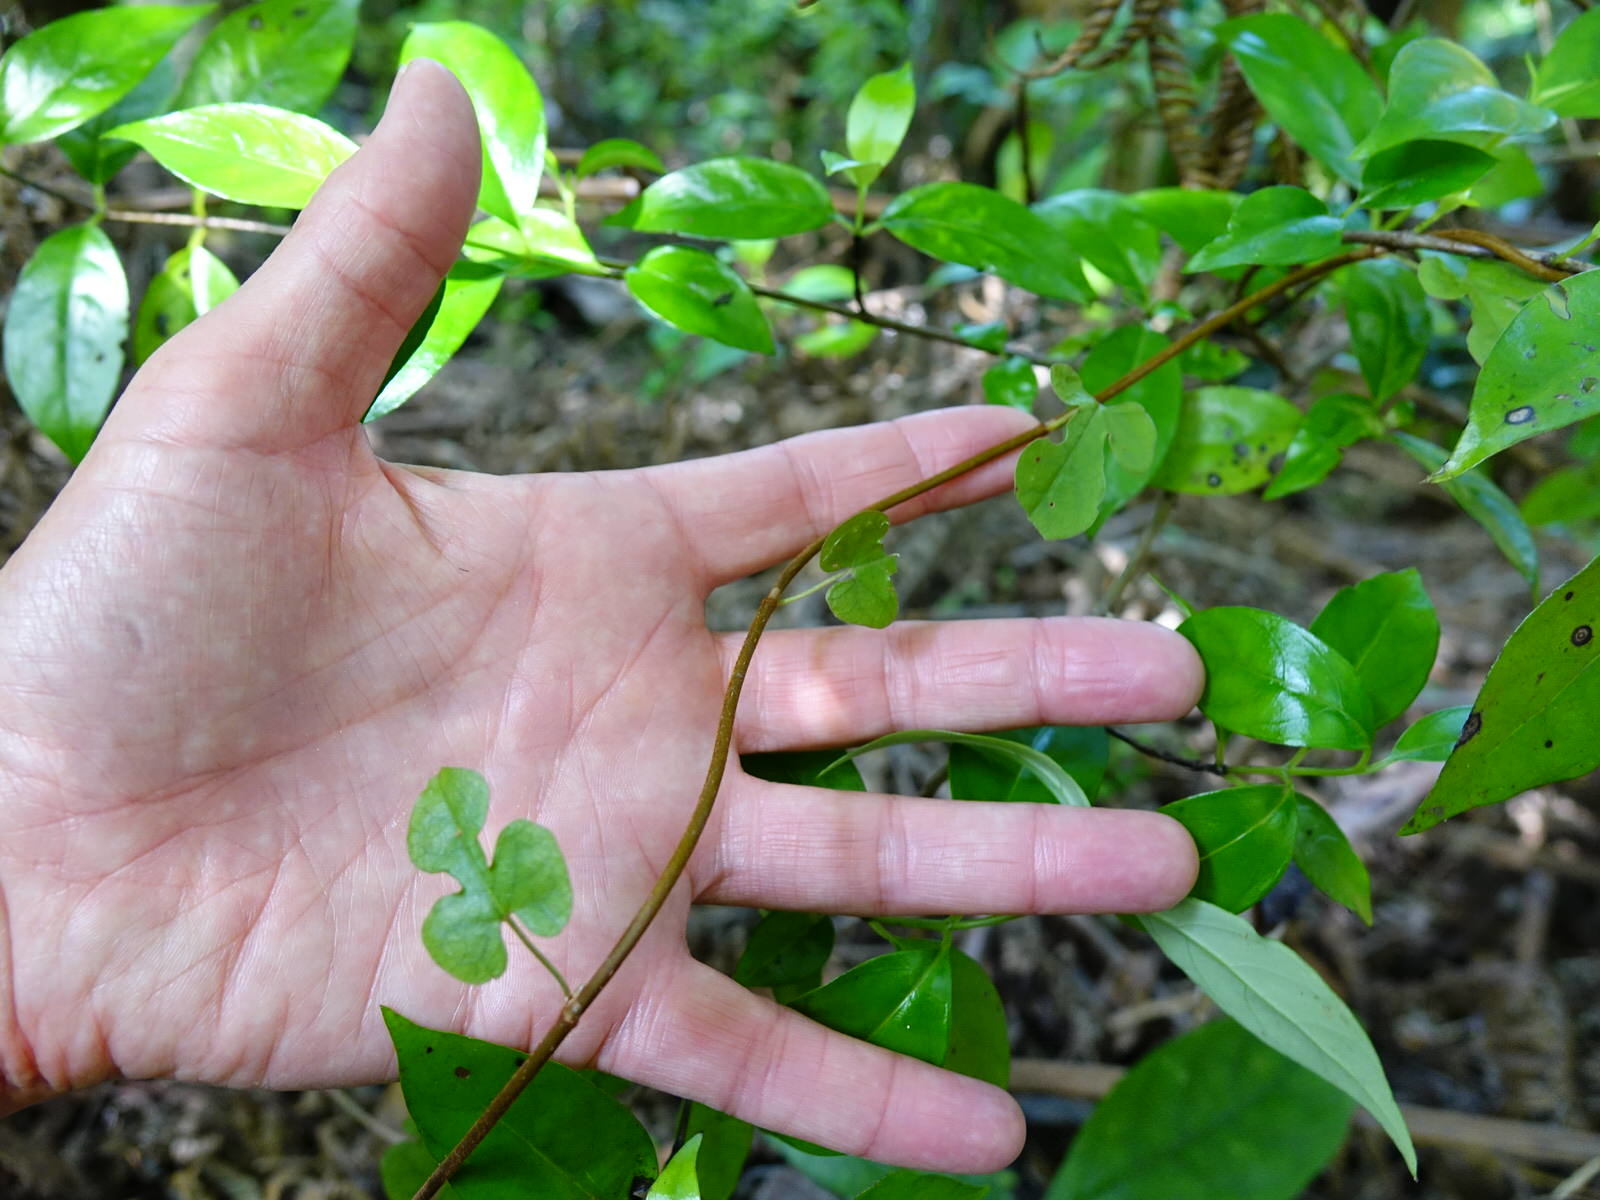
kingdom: Plantae
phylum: Tracheophyta
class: Magnoliopsida
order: Caryophyllales
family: Polygonaceae
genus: Muehlenbeckia
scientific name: Muehlenbeckia australis
